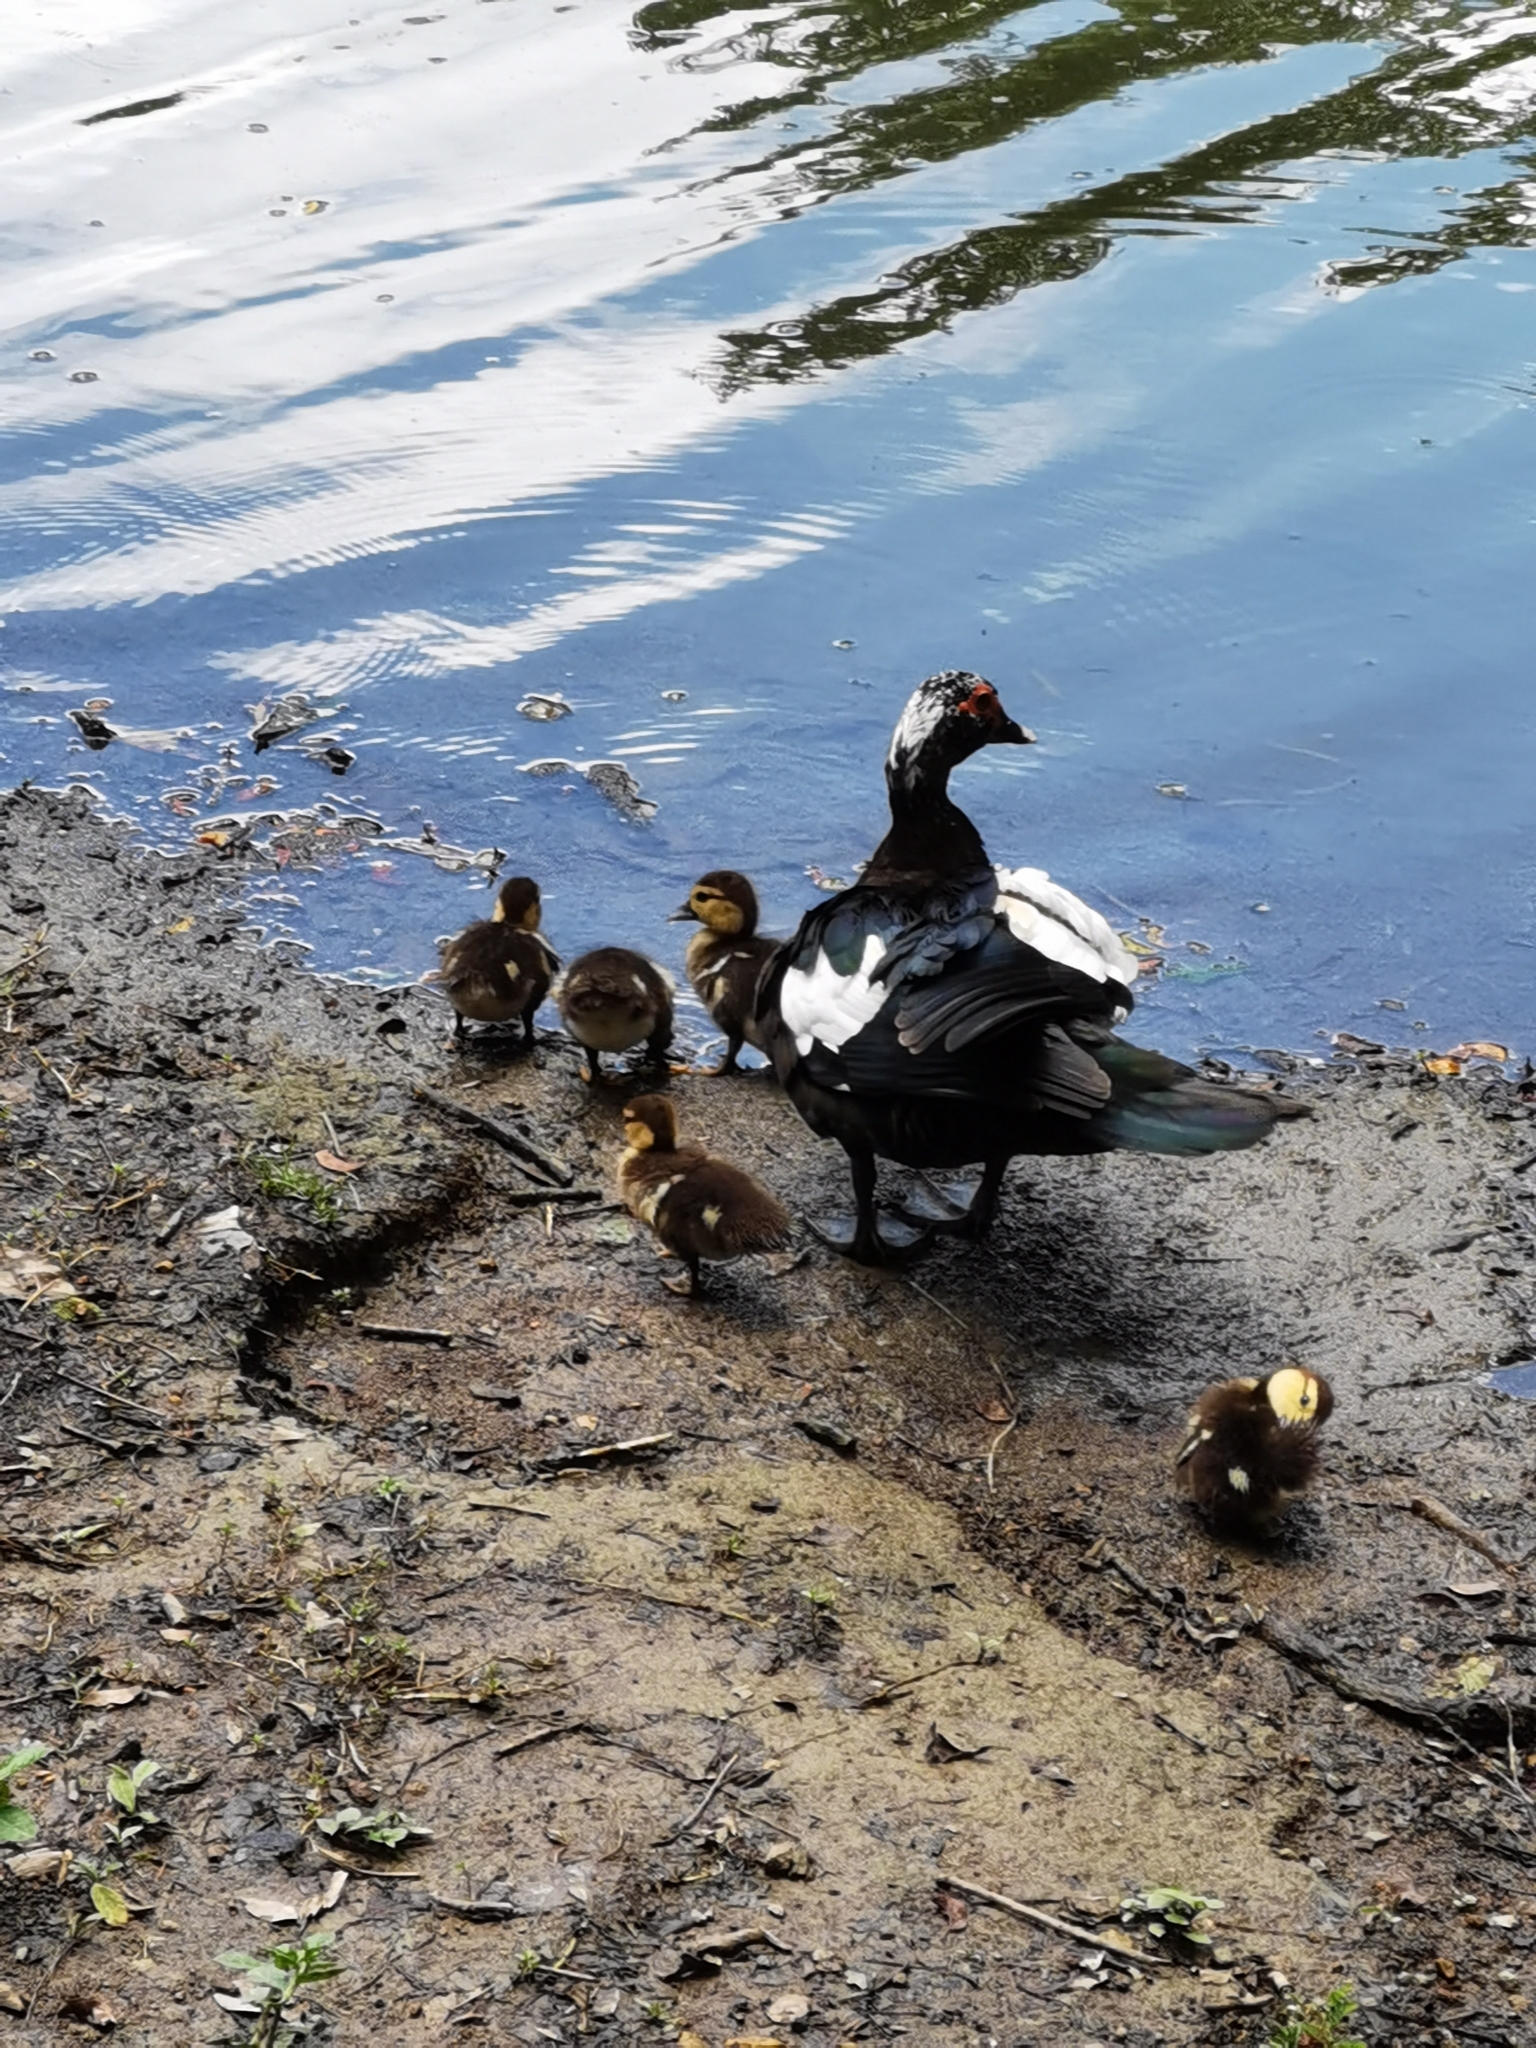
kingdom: Animalia
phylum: Chordata
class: Aves
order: Anseriformes
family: Anatidae
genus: Cairina
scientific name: Cairina moschata
